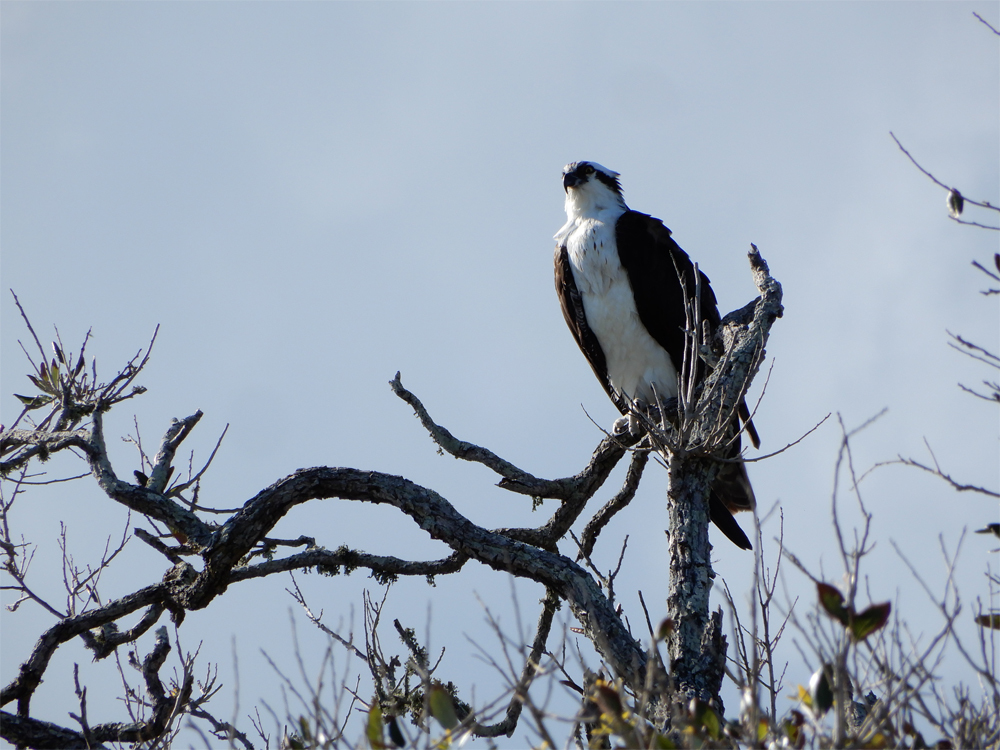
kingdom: Animalia
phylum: Chordata
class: Aves
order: Accipitriformes
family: Pandionidae
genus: Pandion
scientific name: Pandion haliaetus
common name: Osprey
